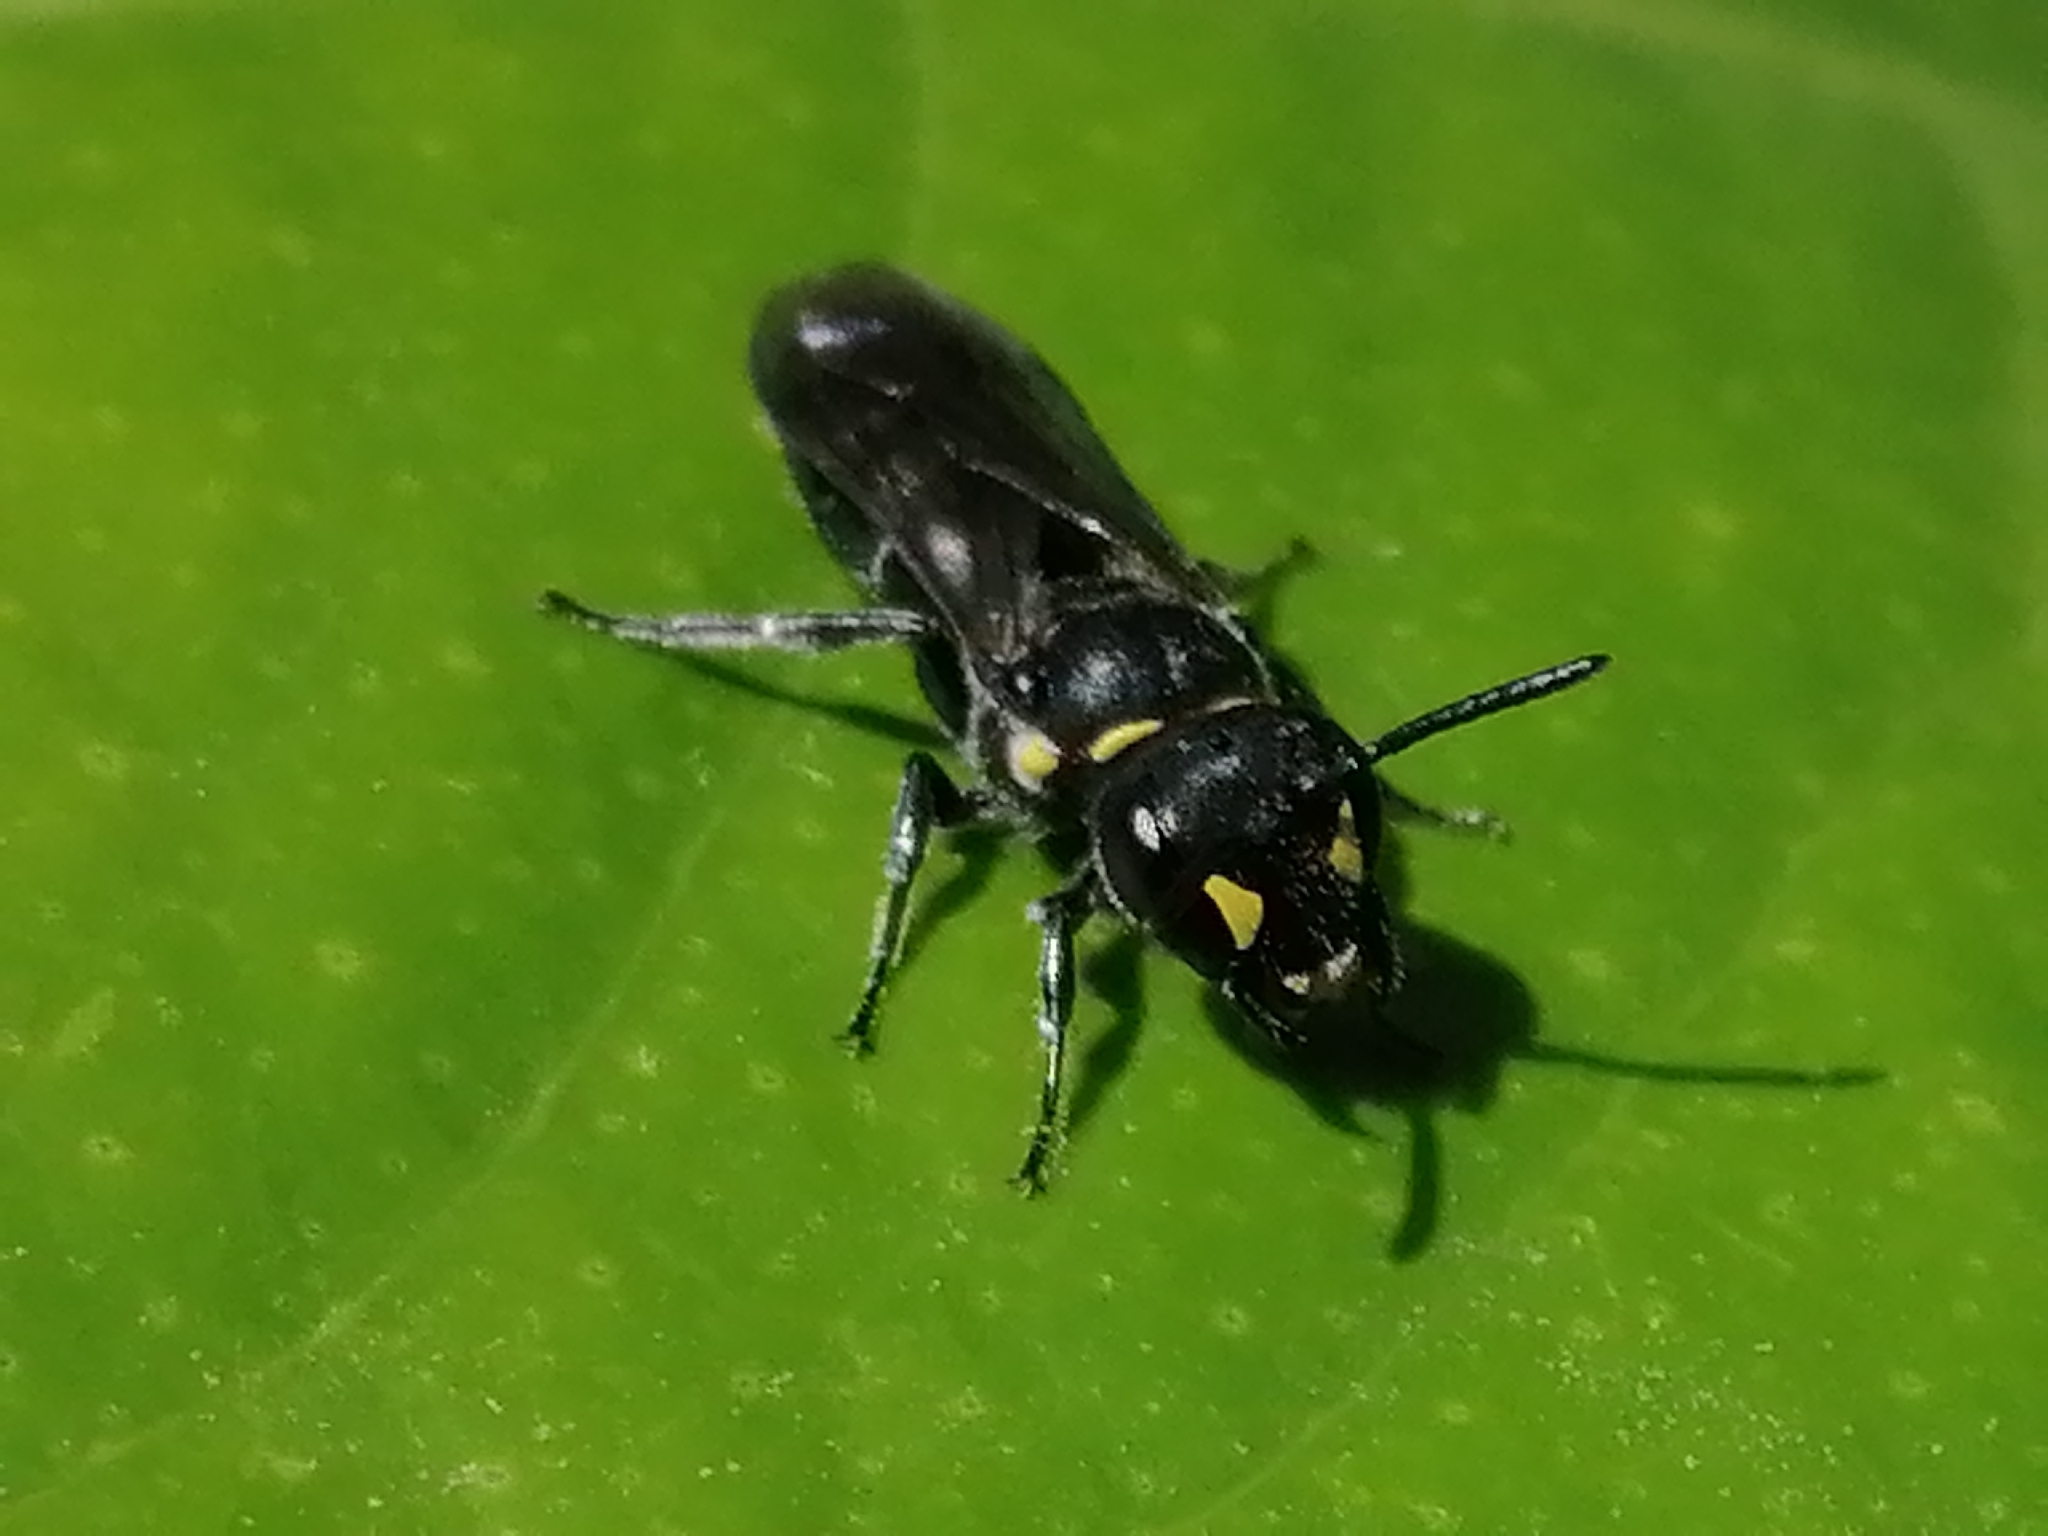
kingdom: Animalia
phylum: Arthropoda
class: Insecta
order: Hymenoptera
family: Colletidae
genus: Hylaeus
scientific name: Hylaeus relegatus
